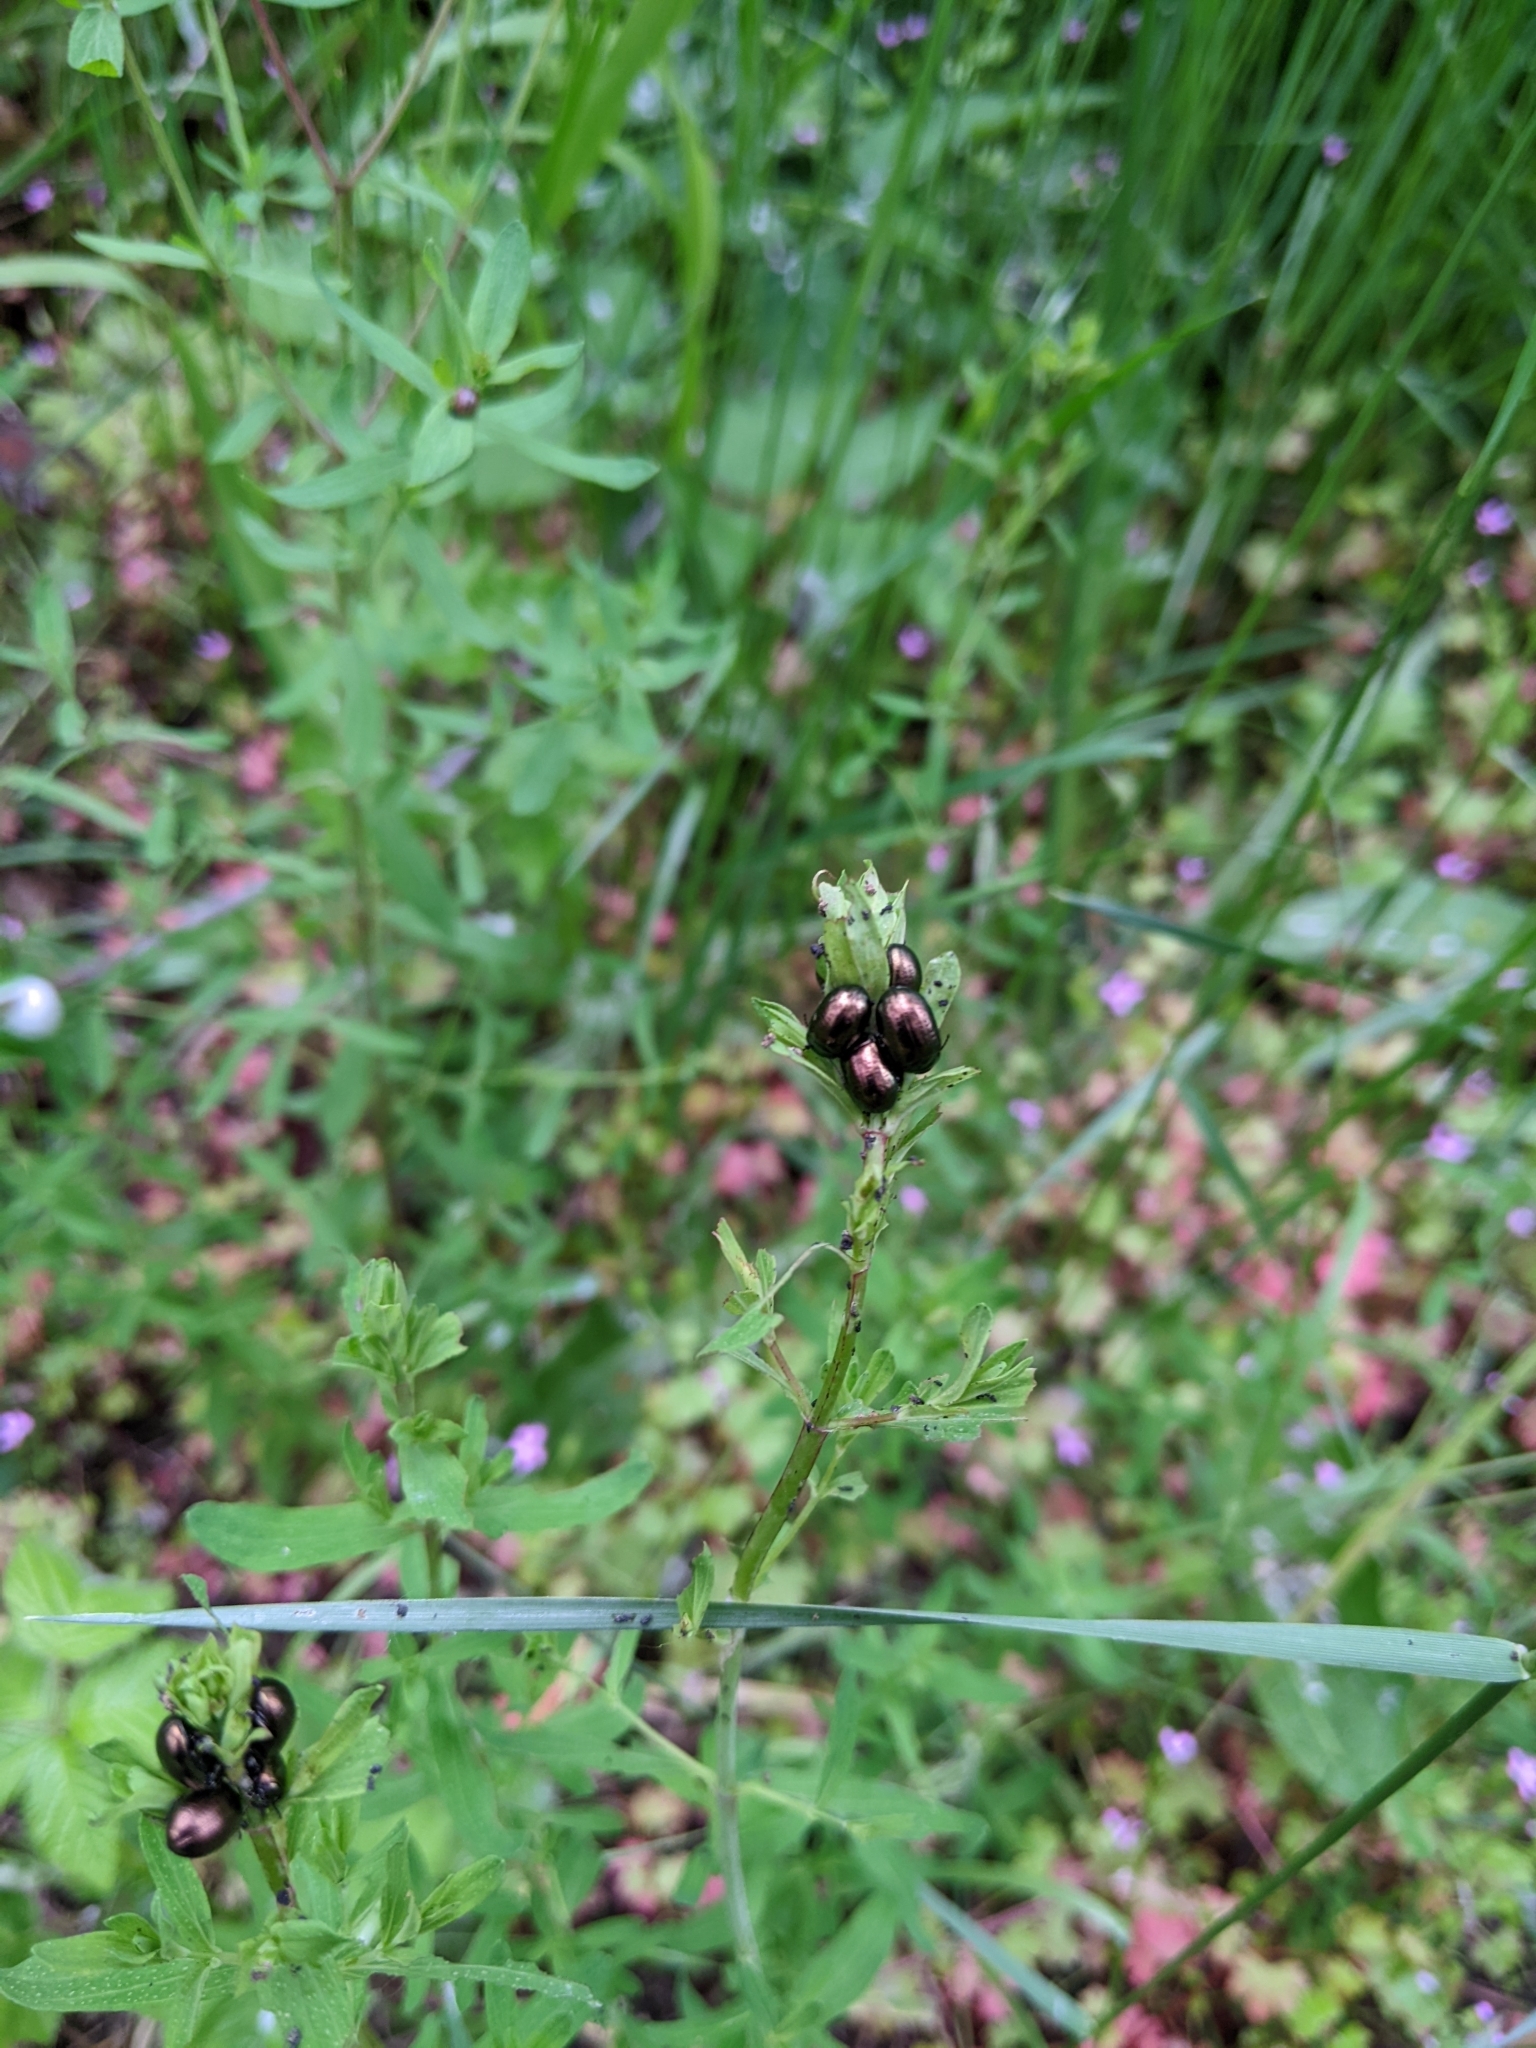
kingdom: Animalia
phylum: Arthropoda
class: Insecta
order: Coleoptera
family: Chrysomelidae
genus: Chrysolina
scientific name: Chrysolina hyperici
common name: St. johnswort beetle
